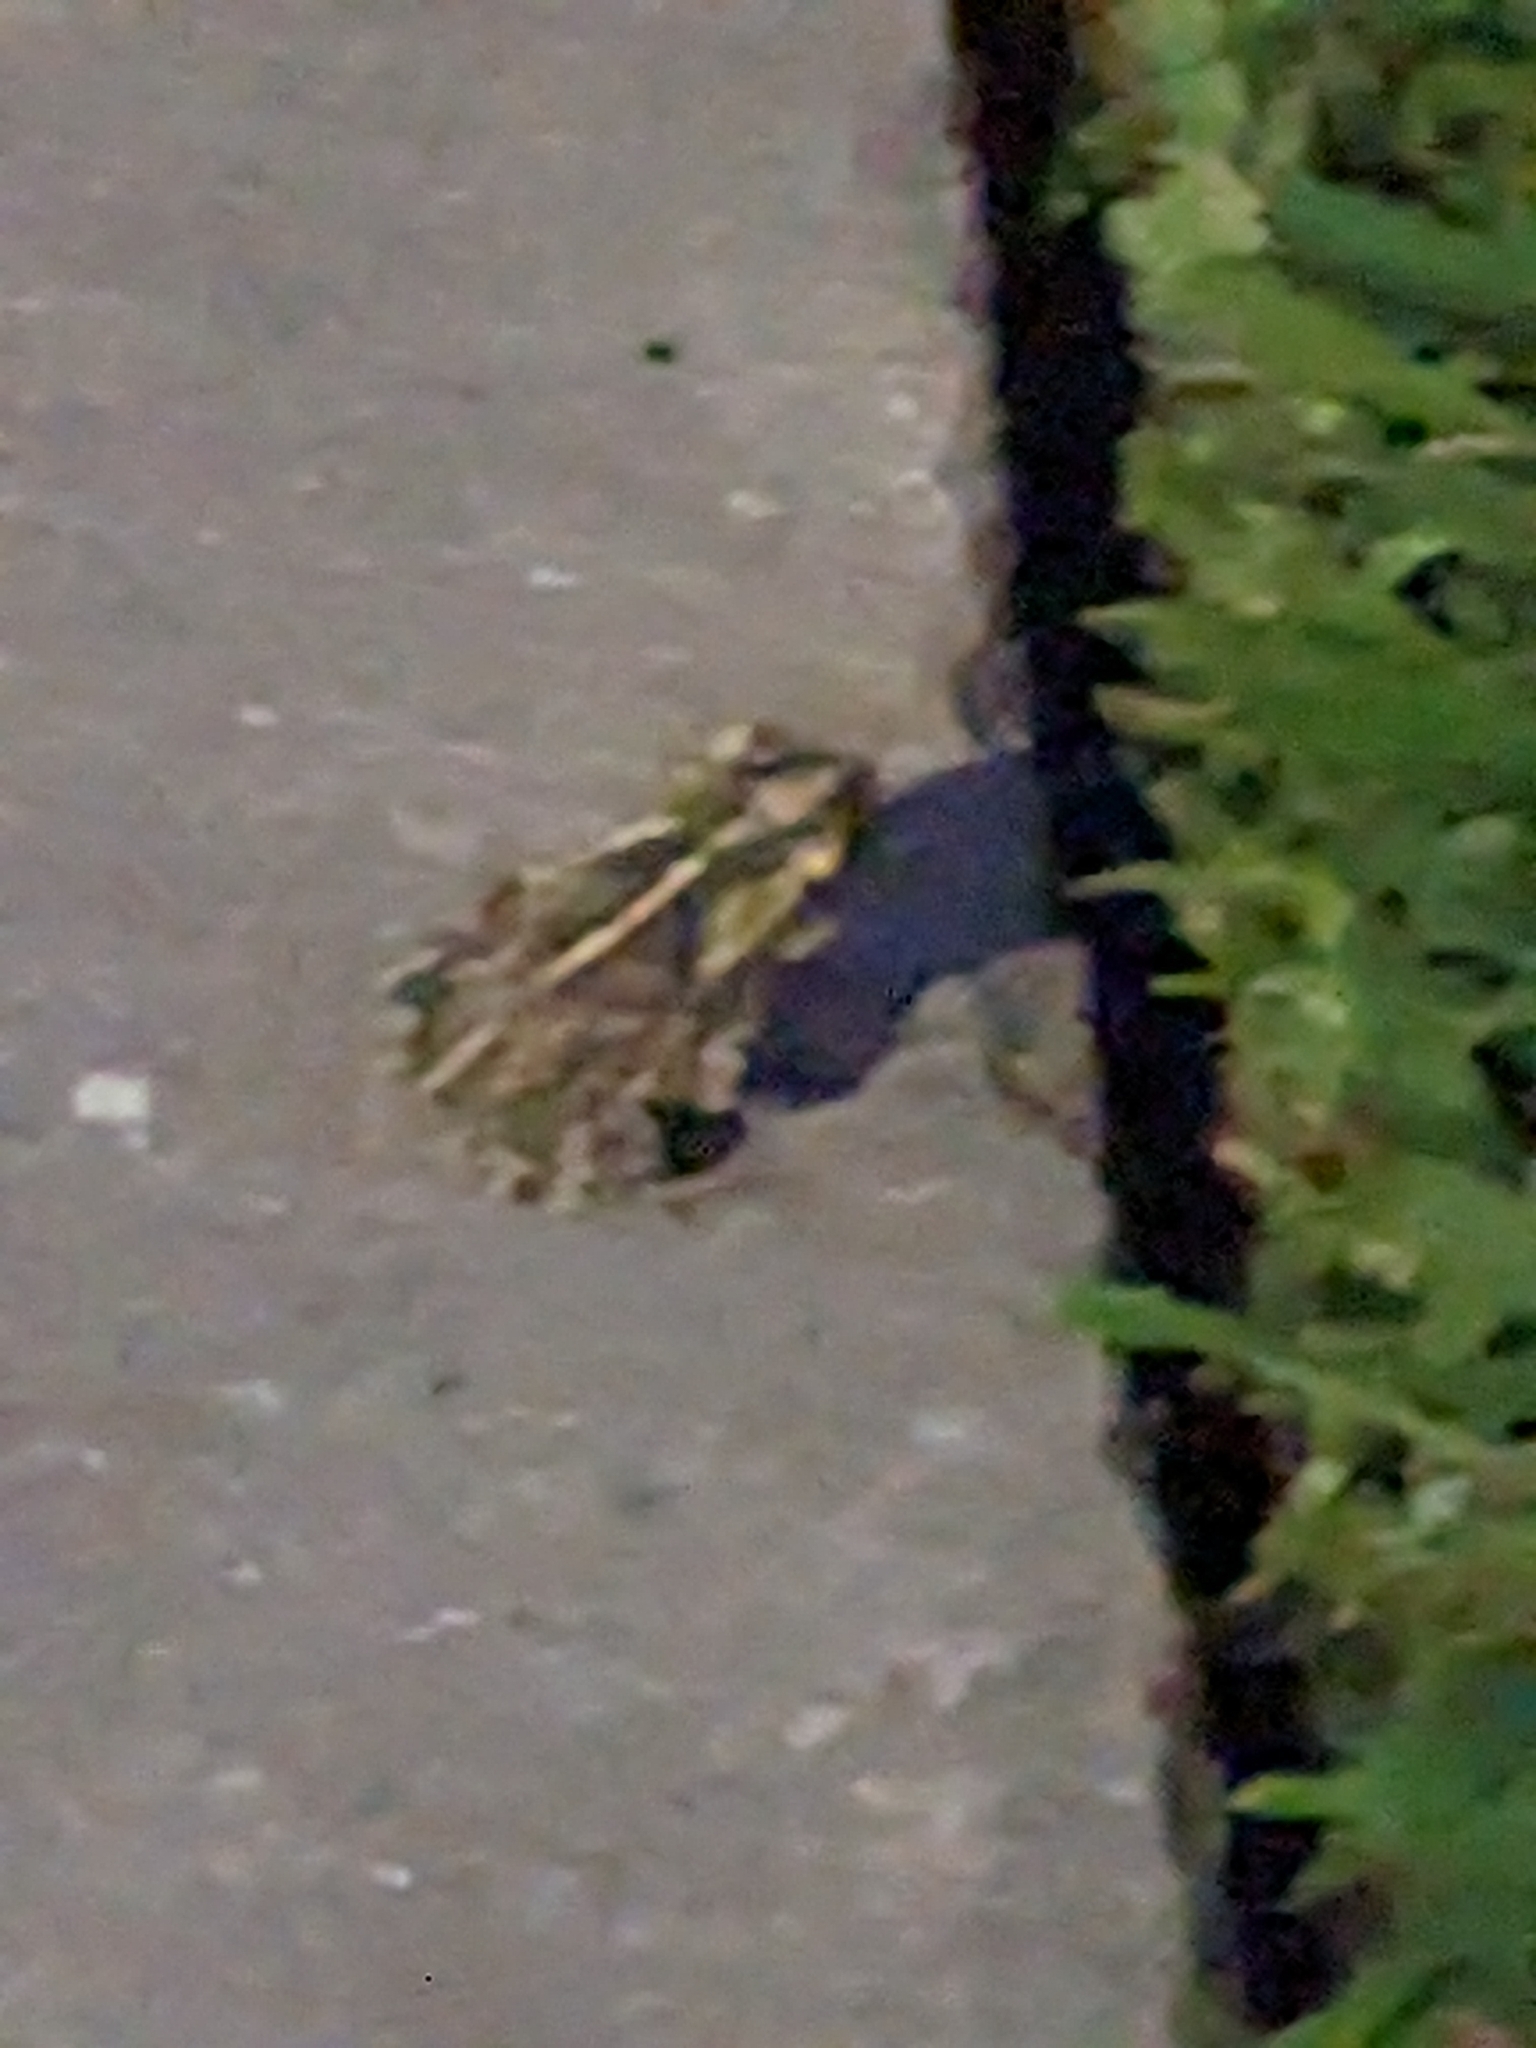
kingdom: Animalia
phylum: Chordata
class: Amphibia
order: Anura
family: Bufonidae
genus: Incilius
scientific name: Incilius nebulifer
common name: Gulf coast toad
